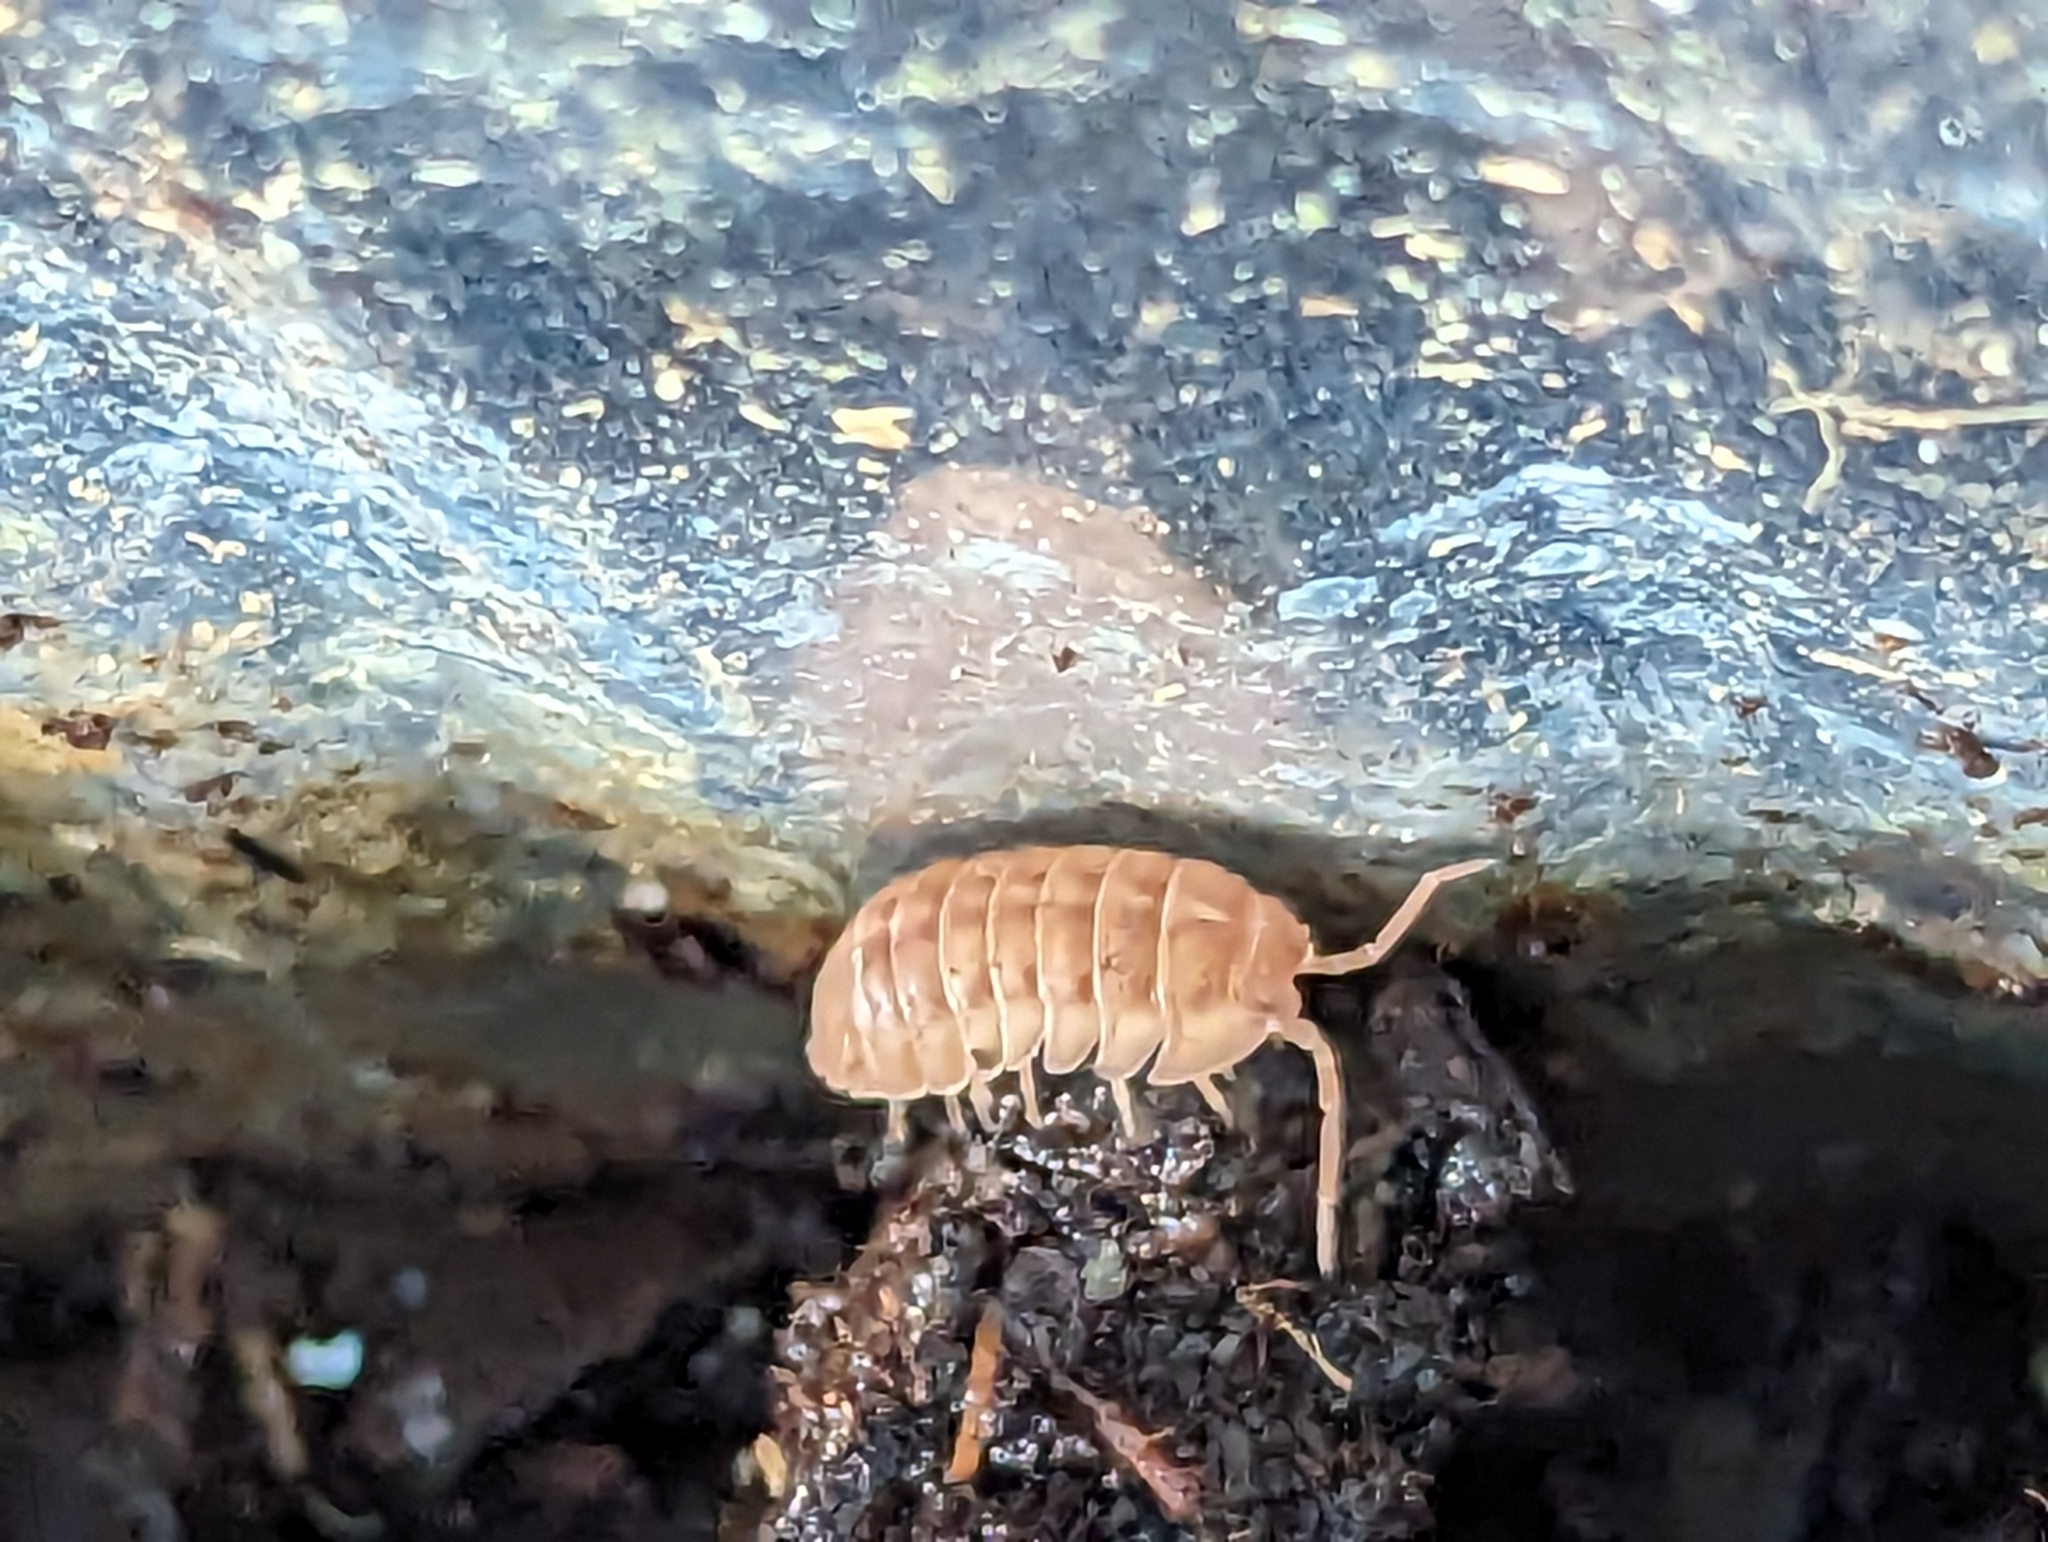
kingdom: Animalia
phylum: Arthropoda
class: Malacostraca
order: Isopoda
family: Armadillidiidae
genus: Armadillidium
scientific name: Armadillidium nasatum
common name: Isopod
